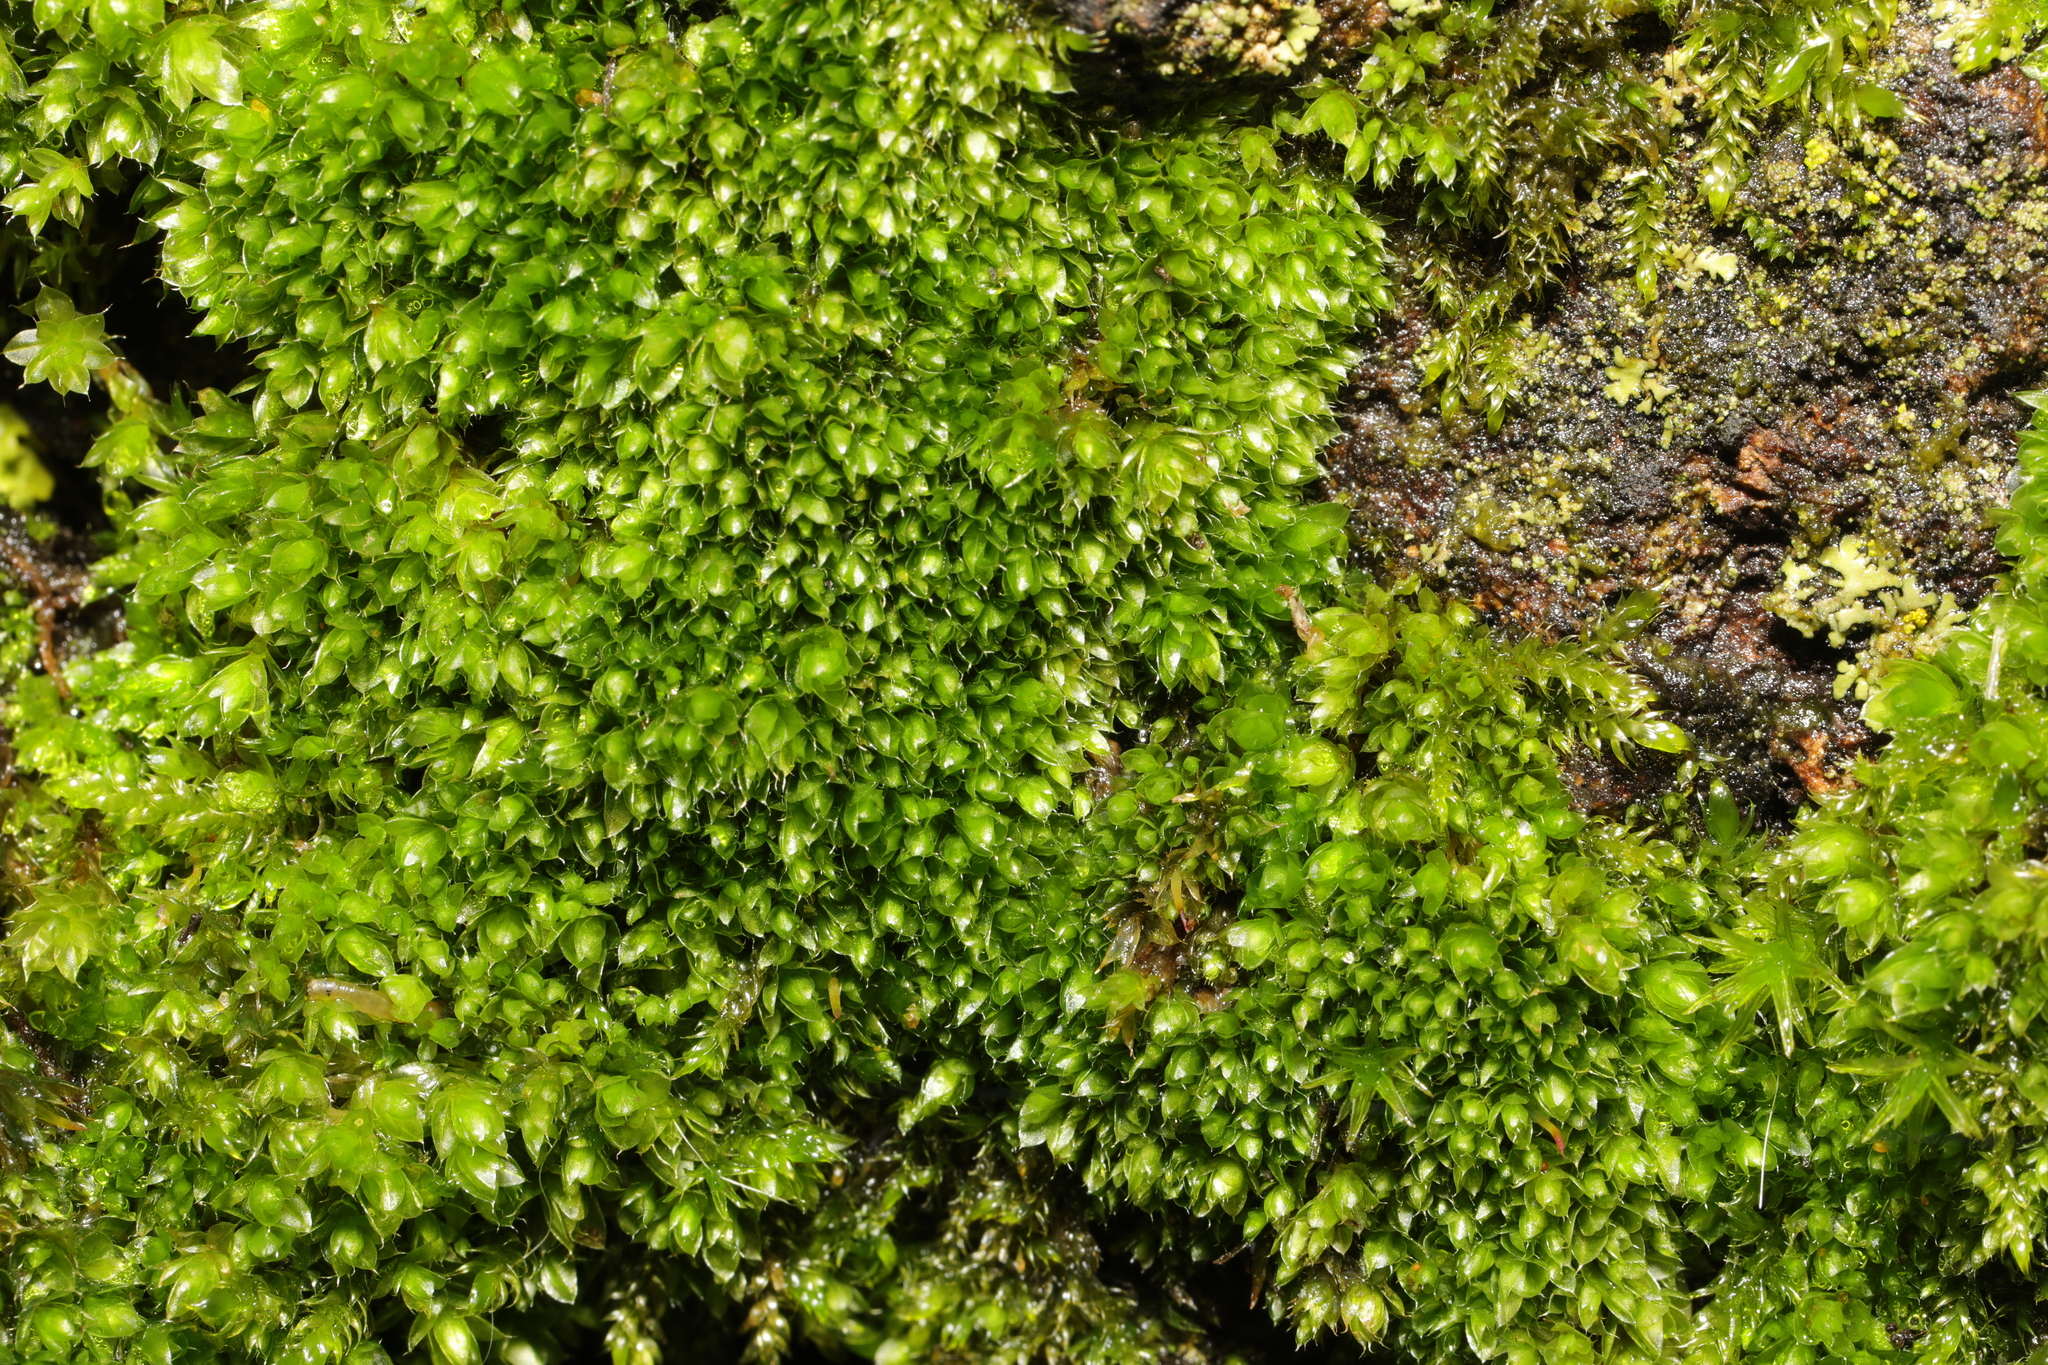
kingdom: Plantae
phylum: Bryophyta
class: Bryopsida
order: Bryales
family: Bryaceae
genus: Rosulabryum
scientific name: Rosulabryum capillare
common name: Capillary thread-moss
